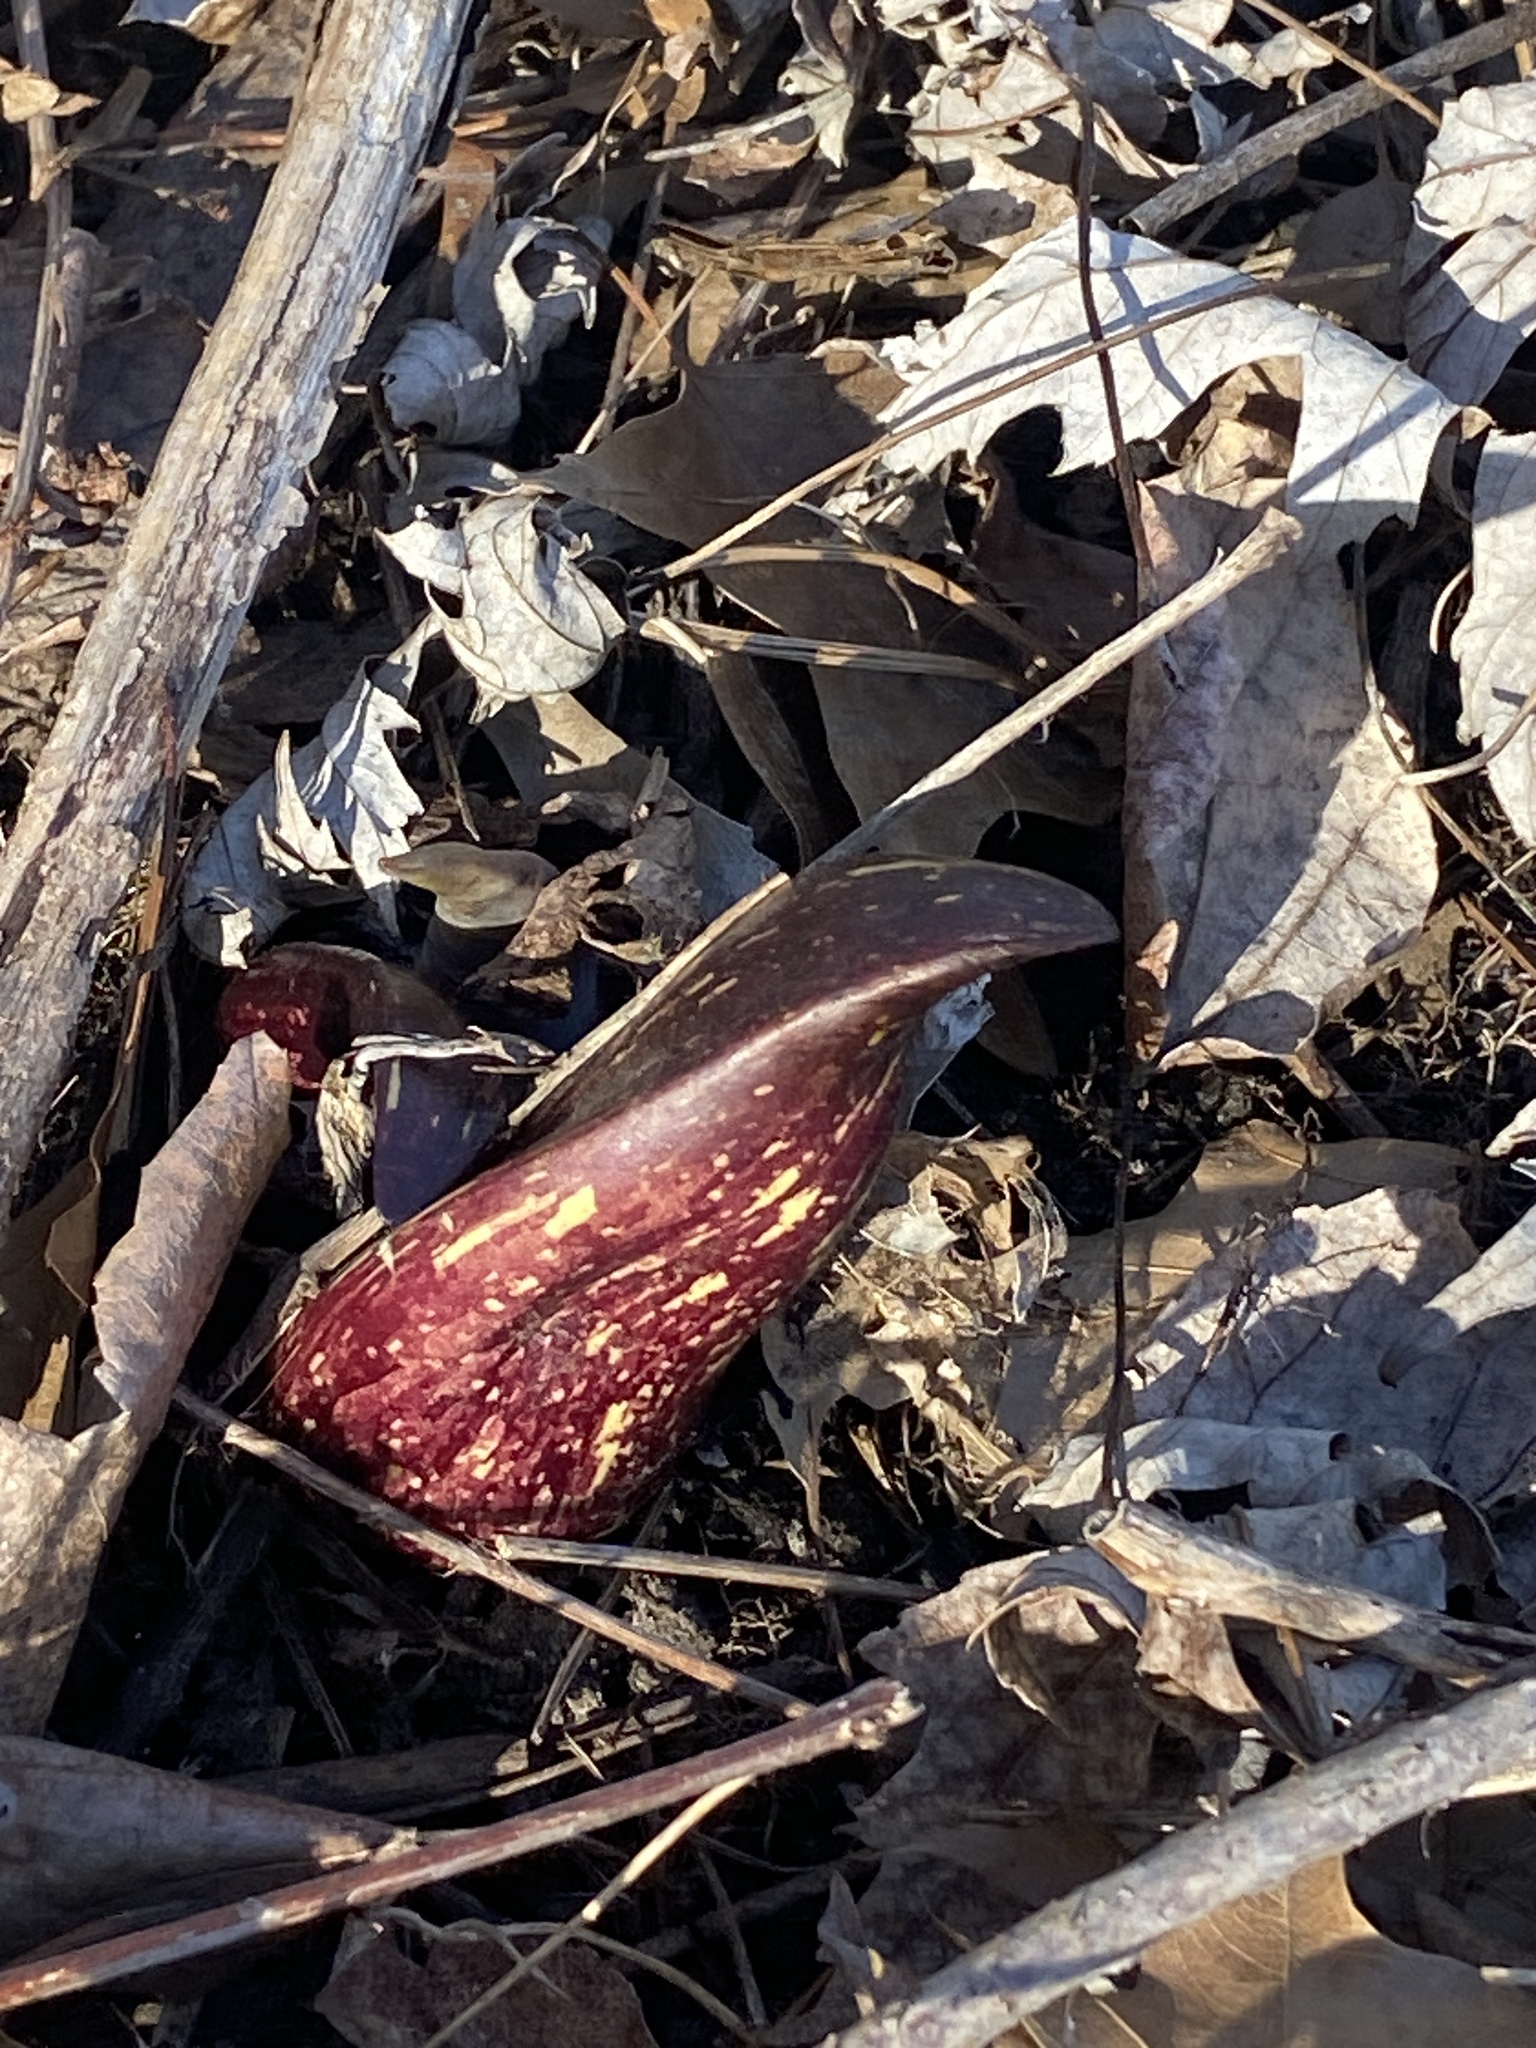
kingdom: Plantae
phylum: Tracheophyta
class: Liliopsida
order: Alismatales
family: Araceae
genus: Symplocarpus
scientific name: Symplocarpus foetidus
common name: Eastern skunk cabbage
